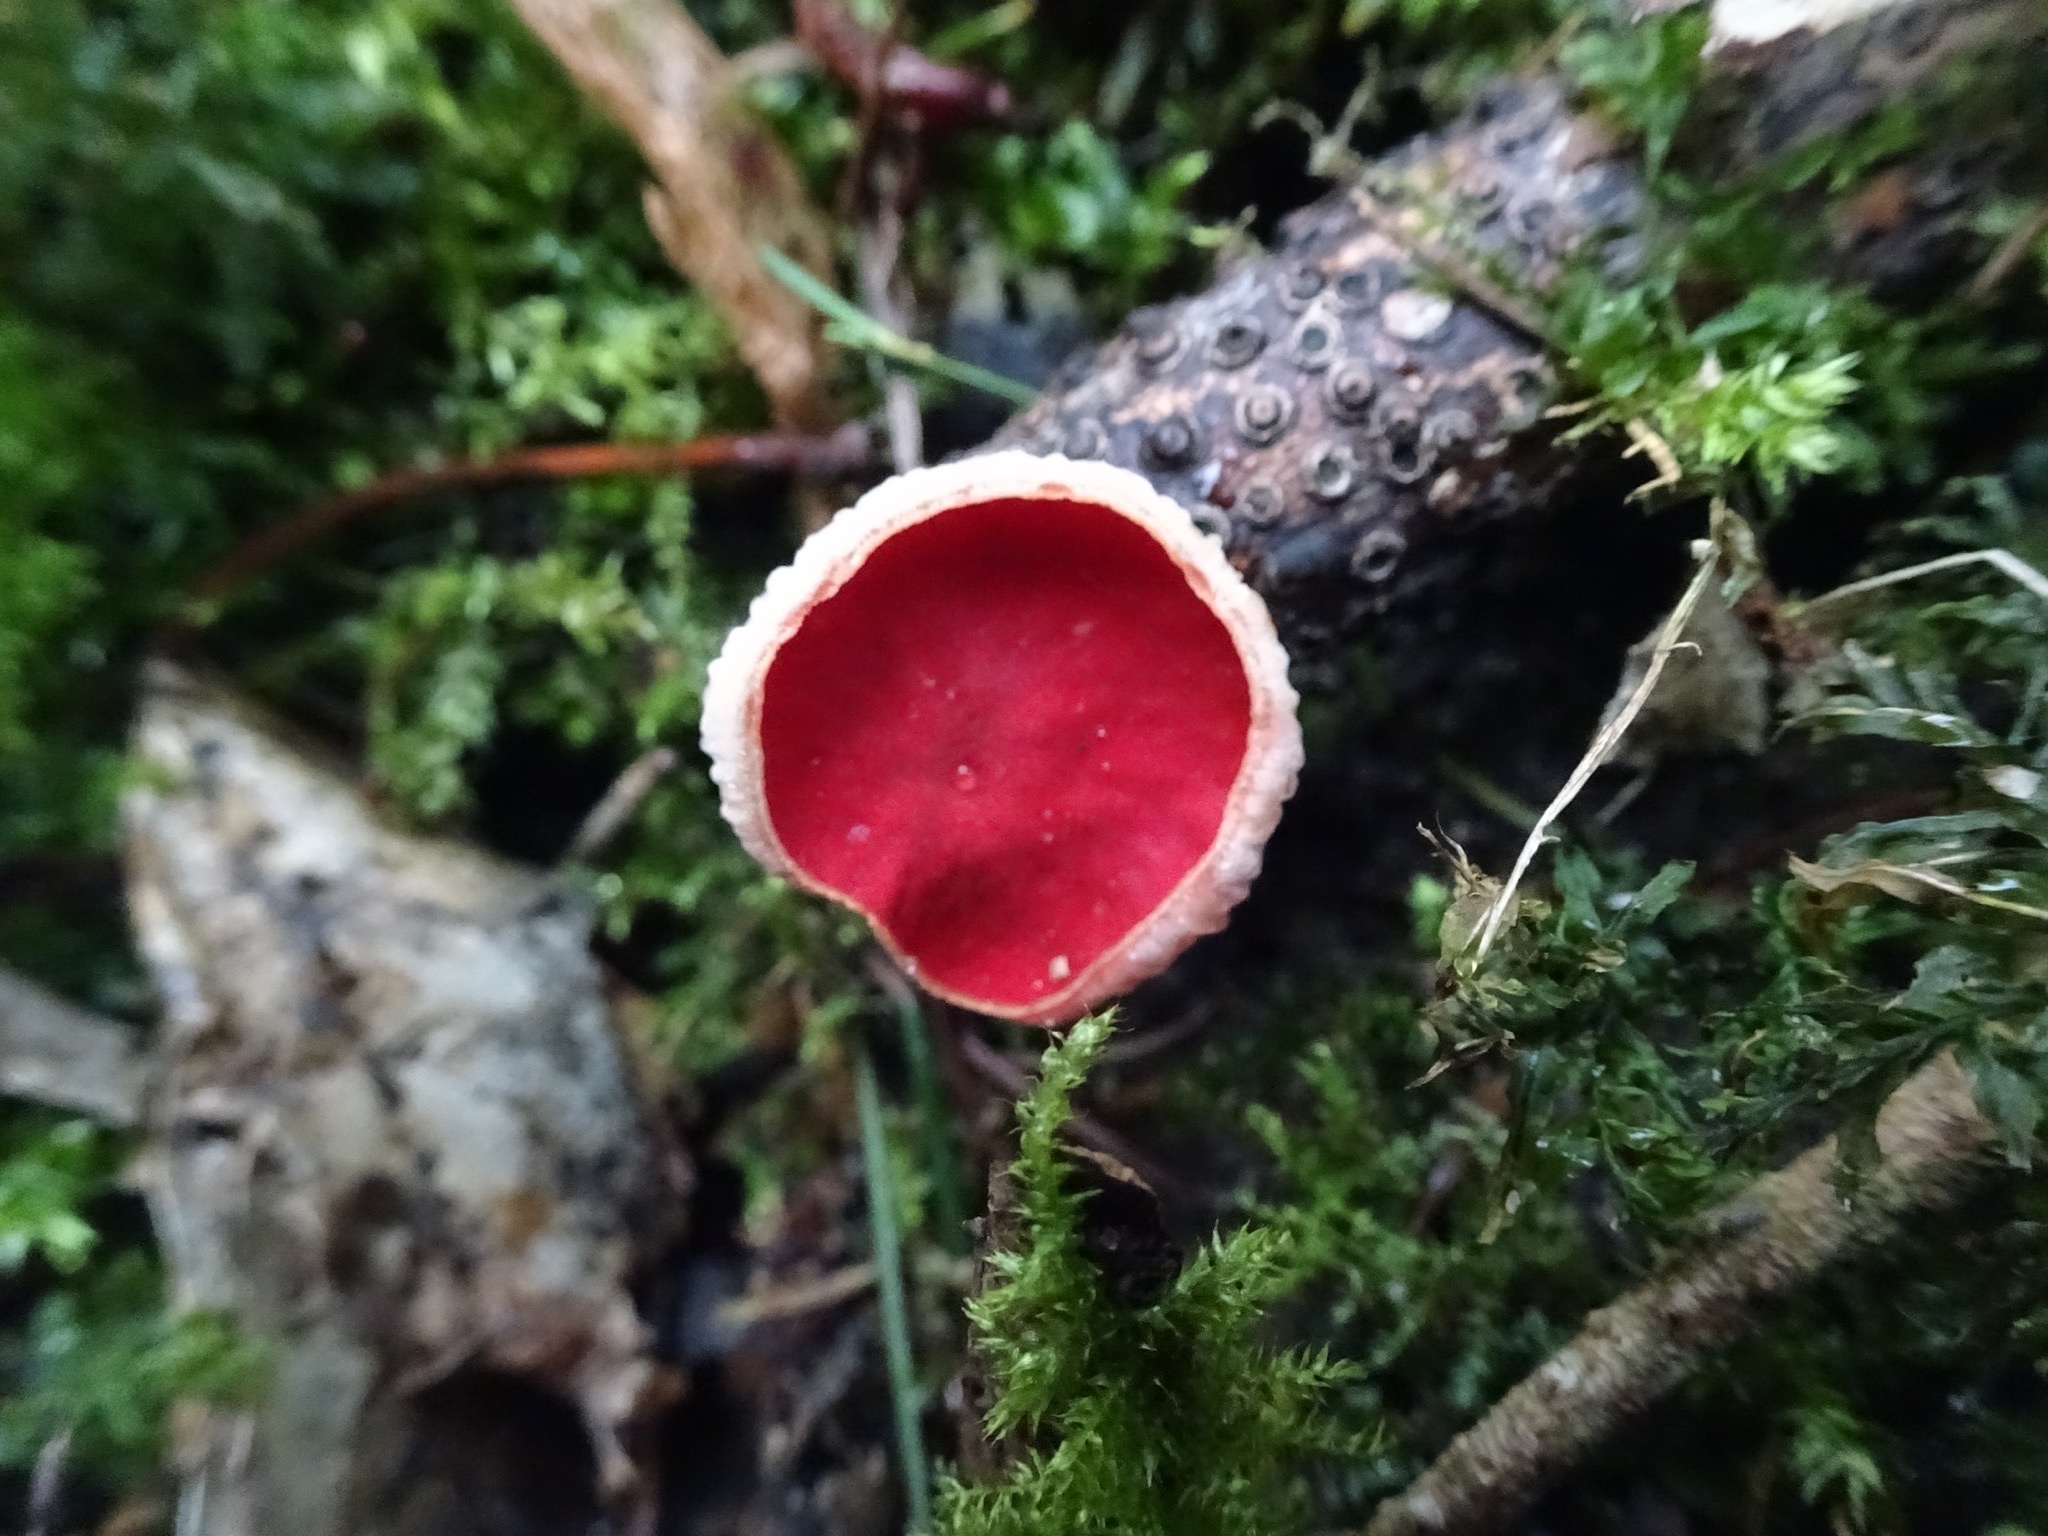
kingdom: Fungi
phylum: Ascomycota
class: Pezizomycetes
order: Pezizales
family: Sarcoscyphaceae
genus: Sarcoscypha
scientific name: Sarcoscypha
